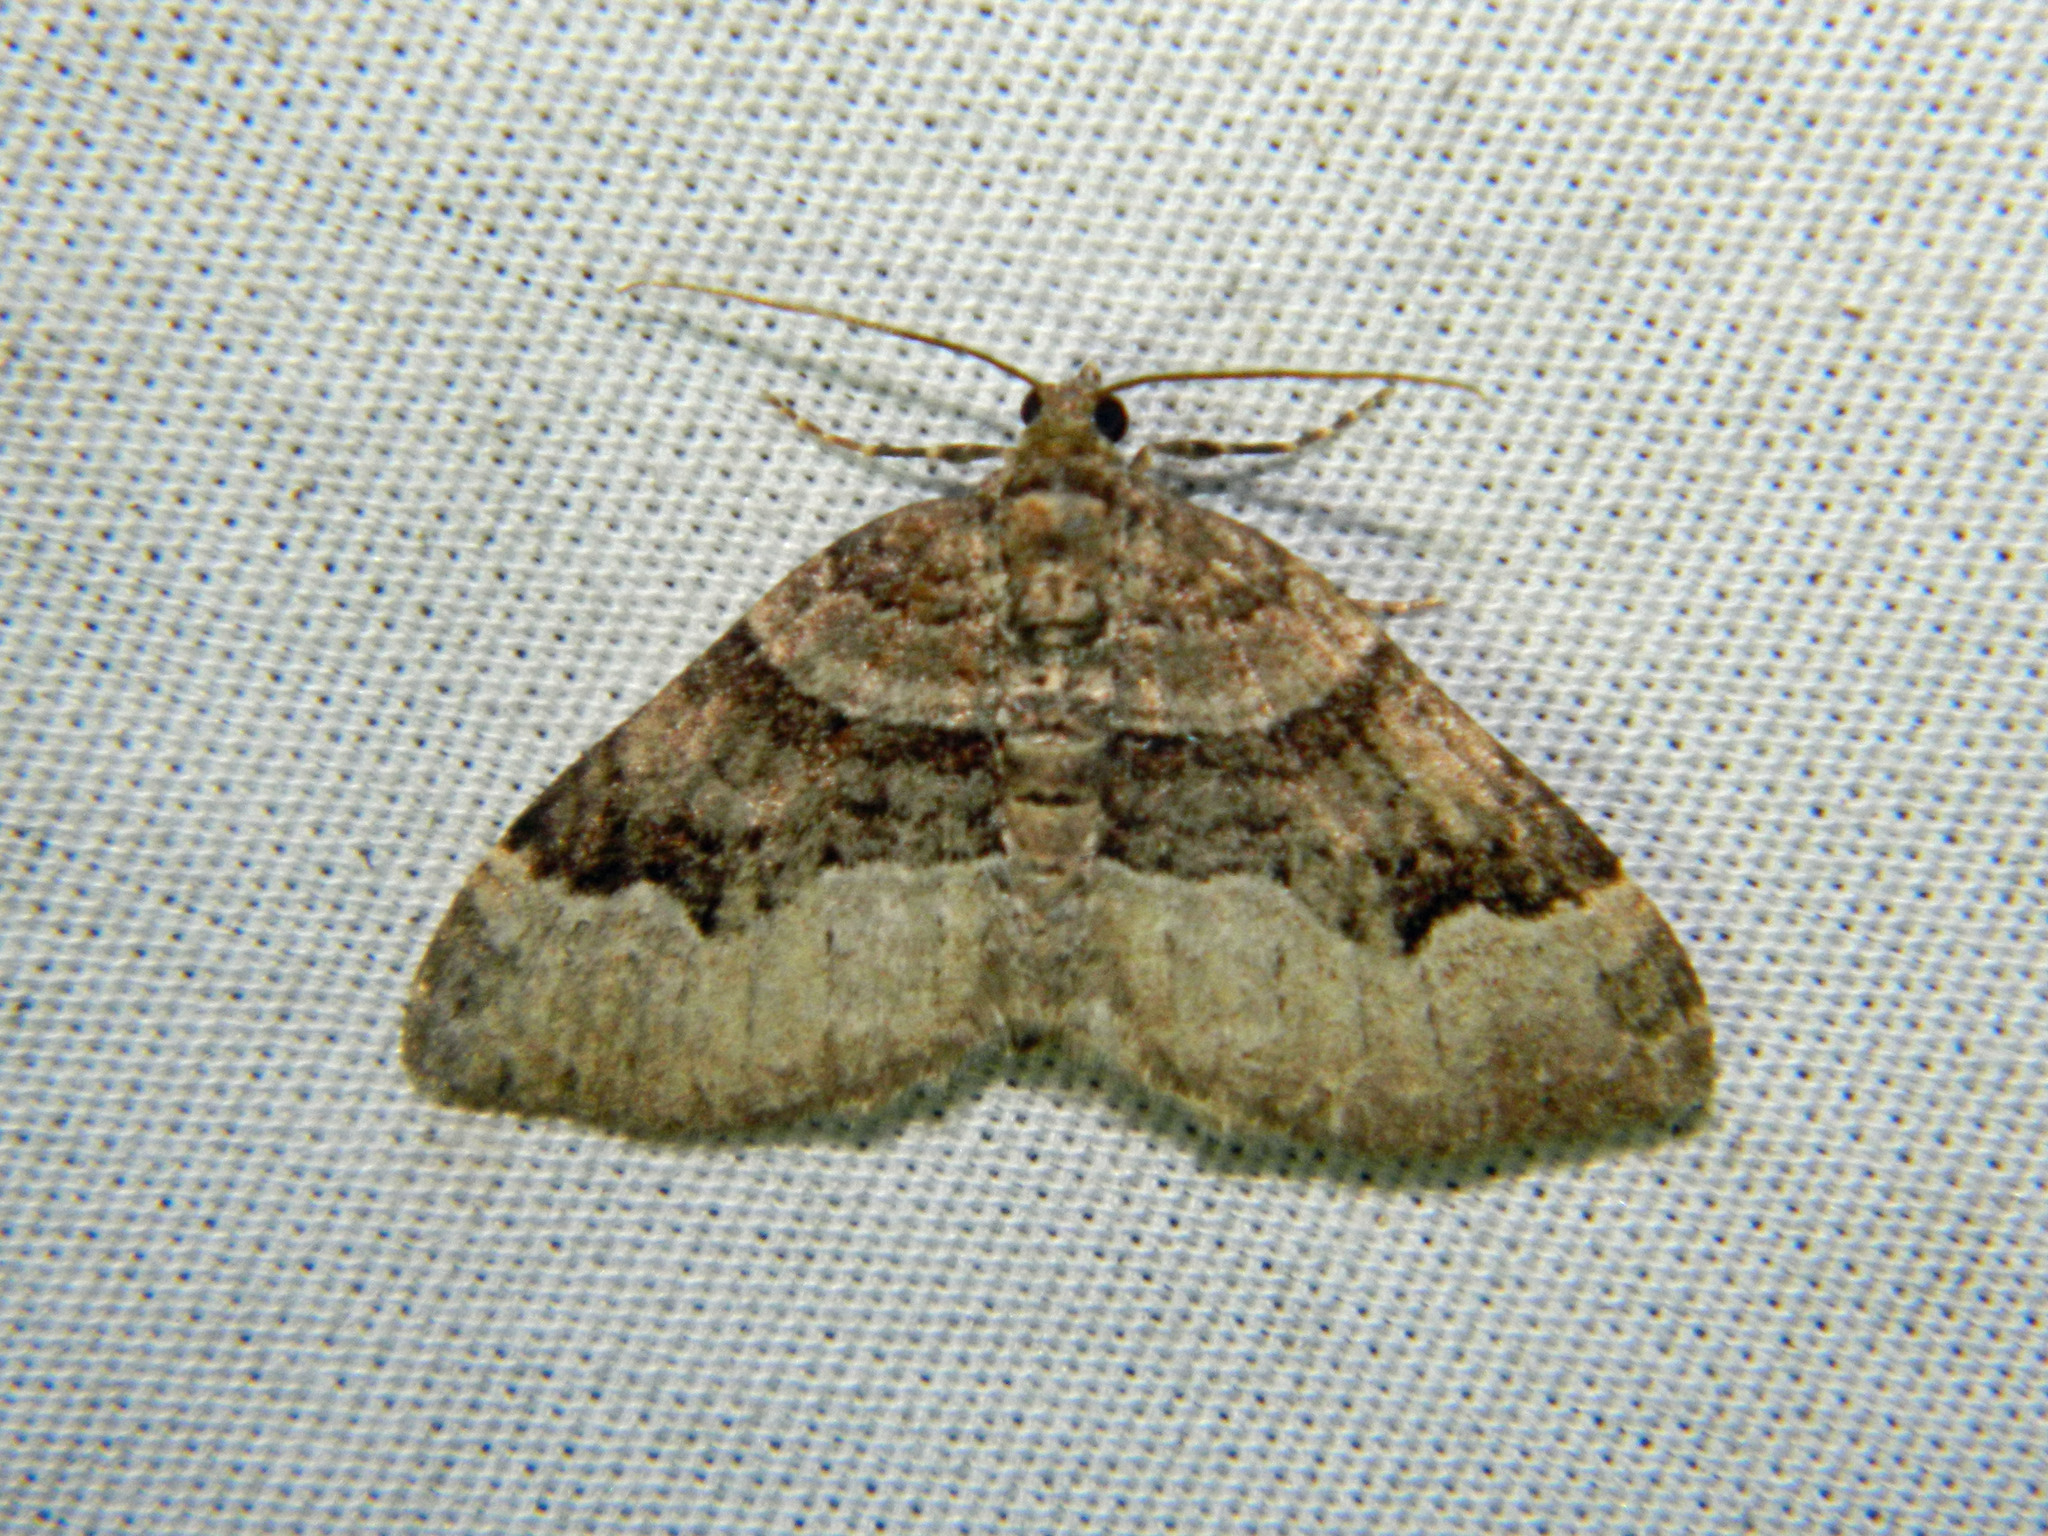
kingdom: Animalia
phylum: Arthropoda
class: Insecta
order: Lepidoptera
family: Geometridae
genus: Xanthorhoe
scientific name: Xanthorhoe lacustrata
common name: Toothed brown carpet
